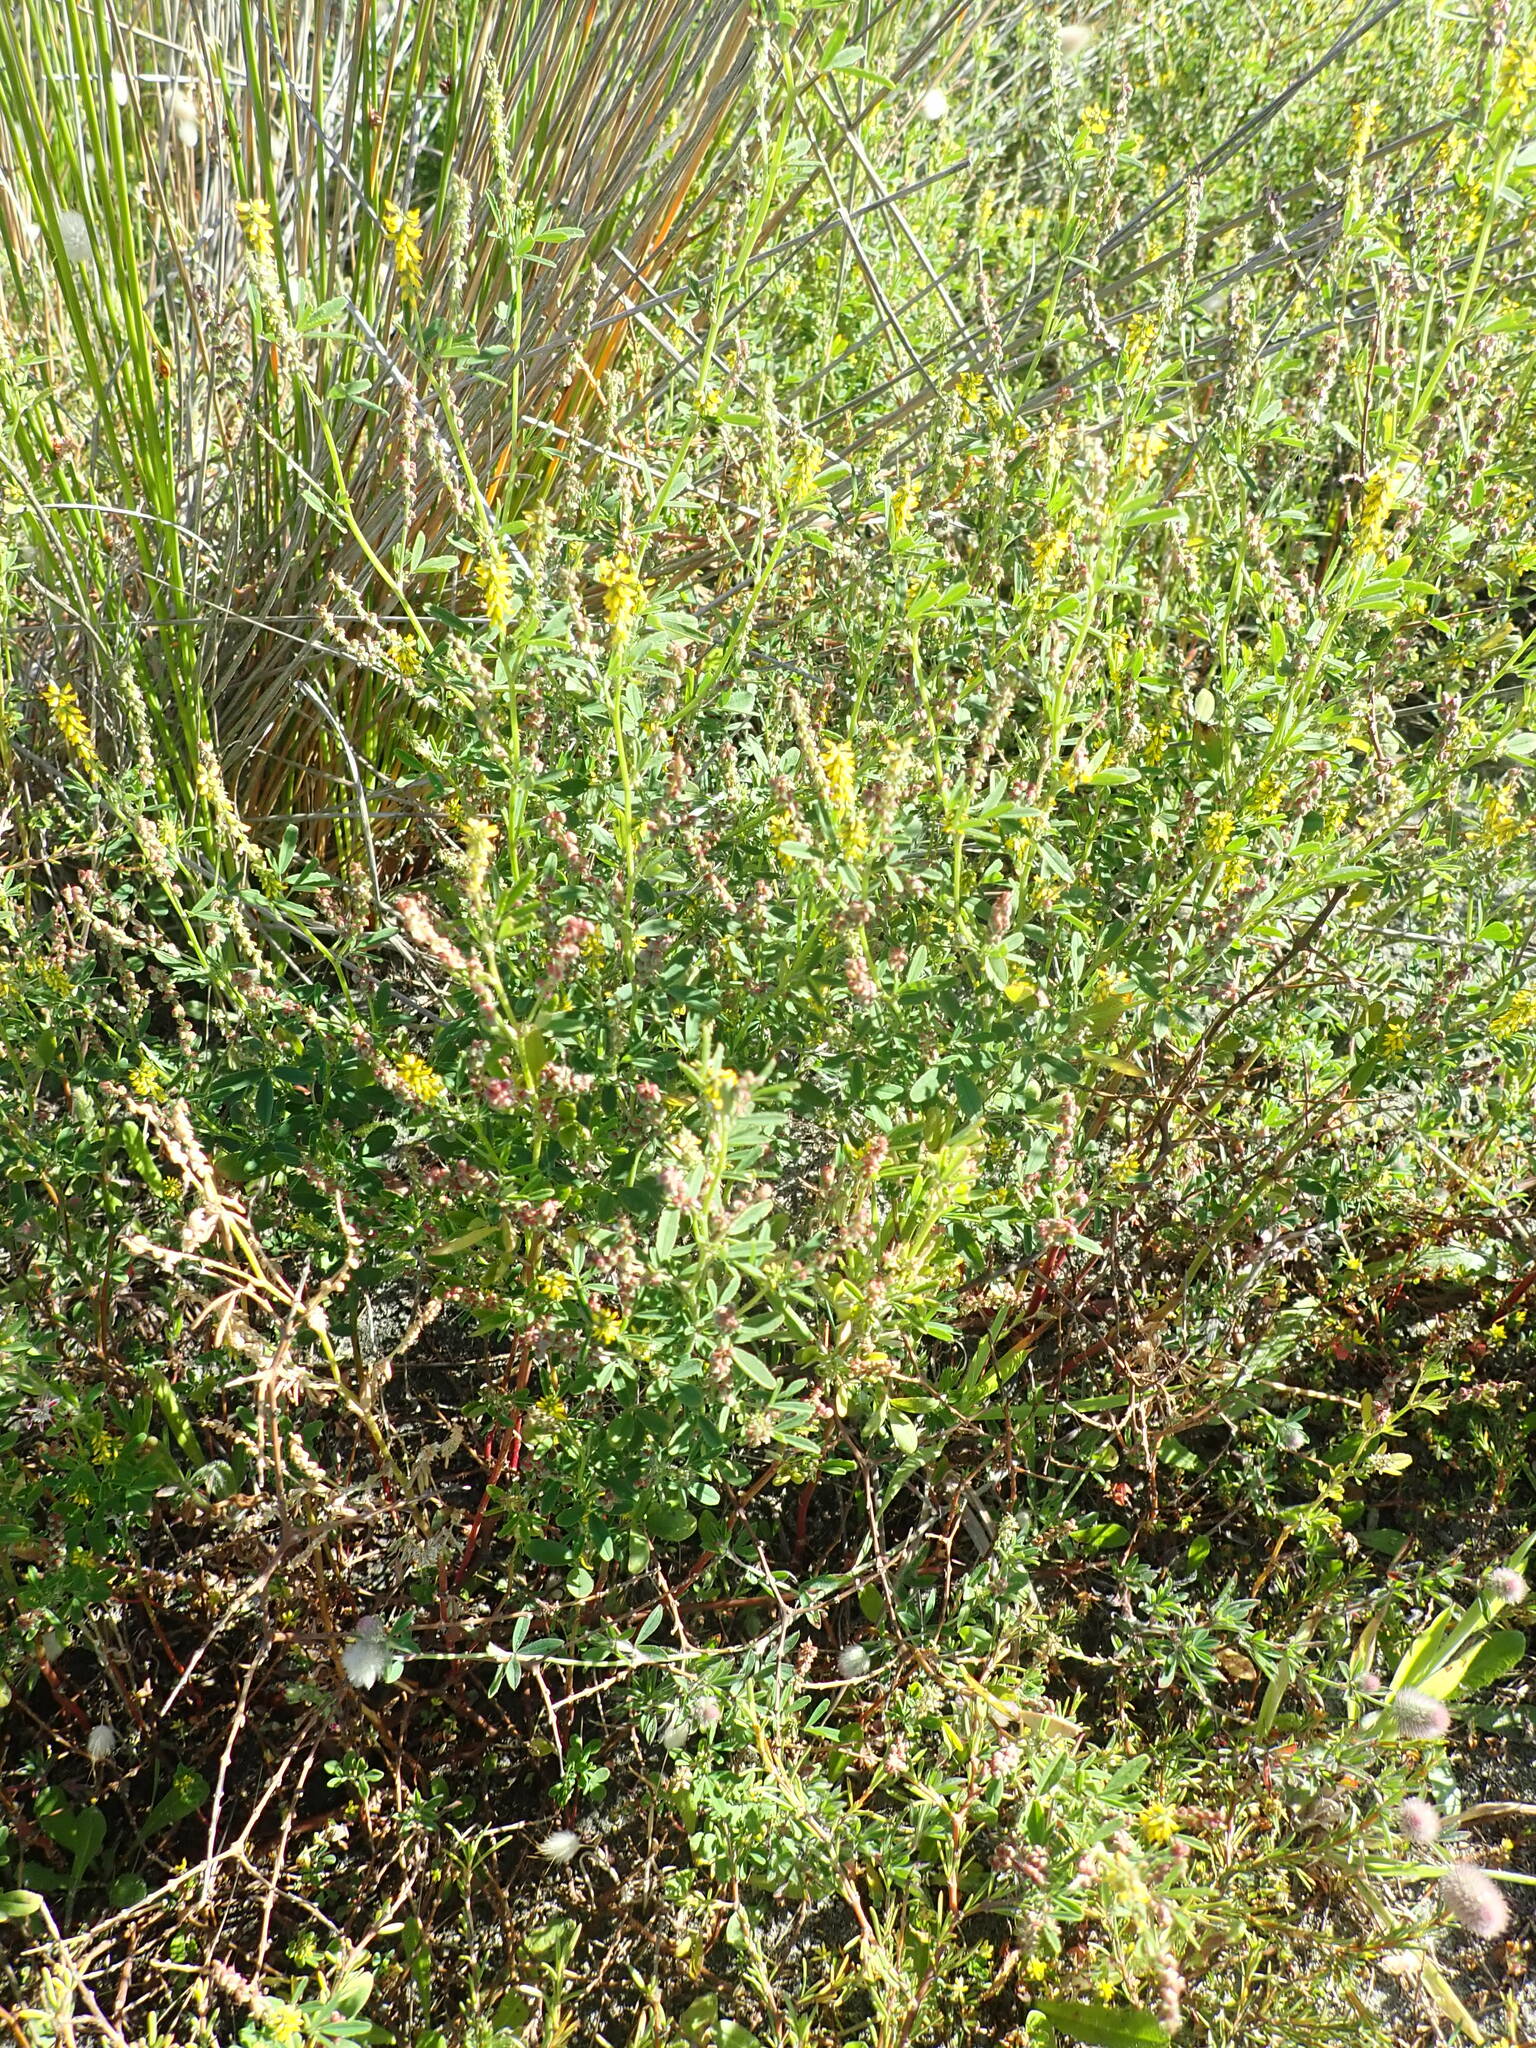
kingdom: Plantae
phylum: Tracheophyta
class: Magnoliopsida
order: Fabales
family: Fabaceae
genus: Melilotus
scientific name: Melilotus indicus
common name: Small melilot
